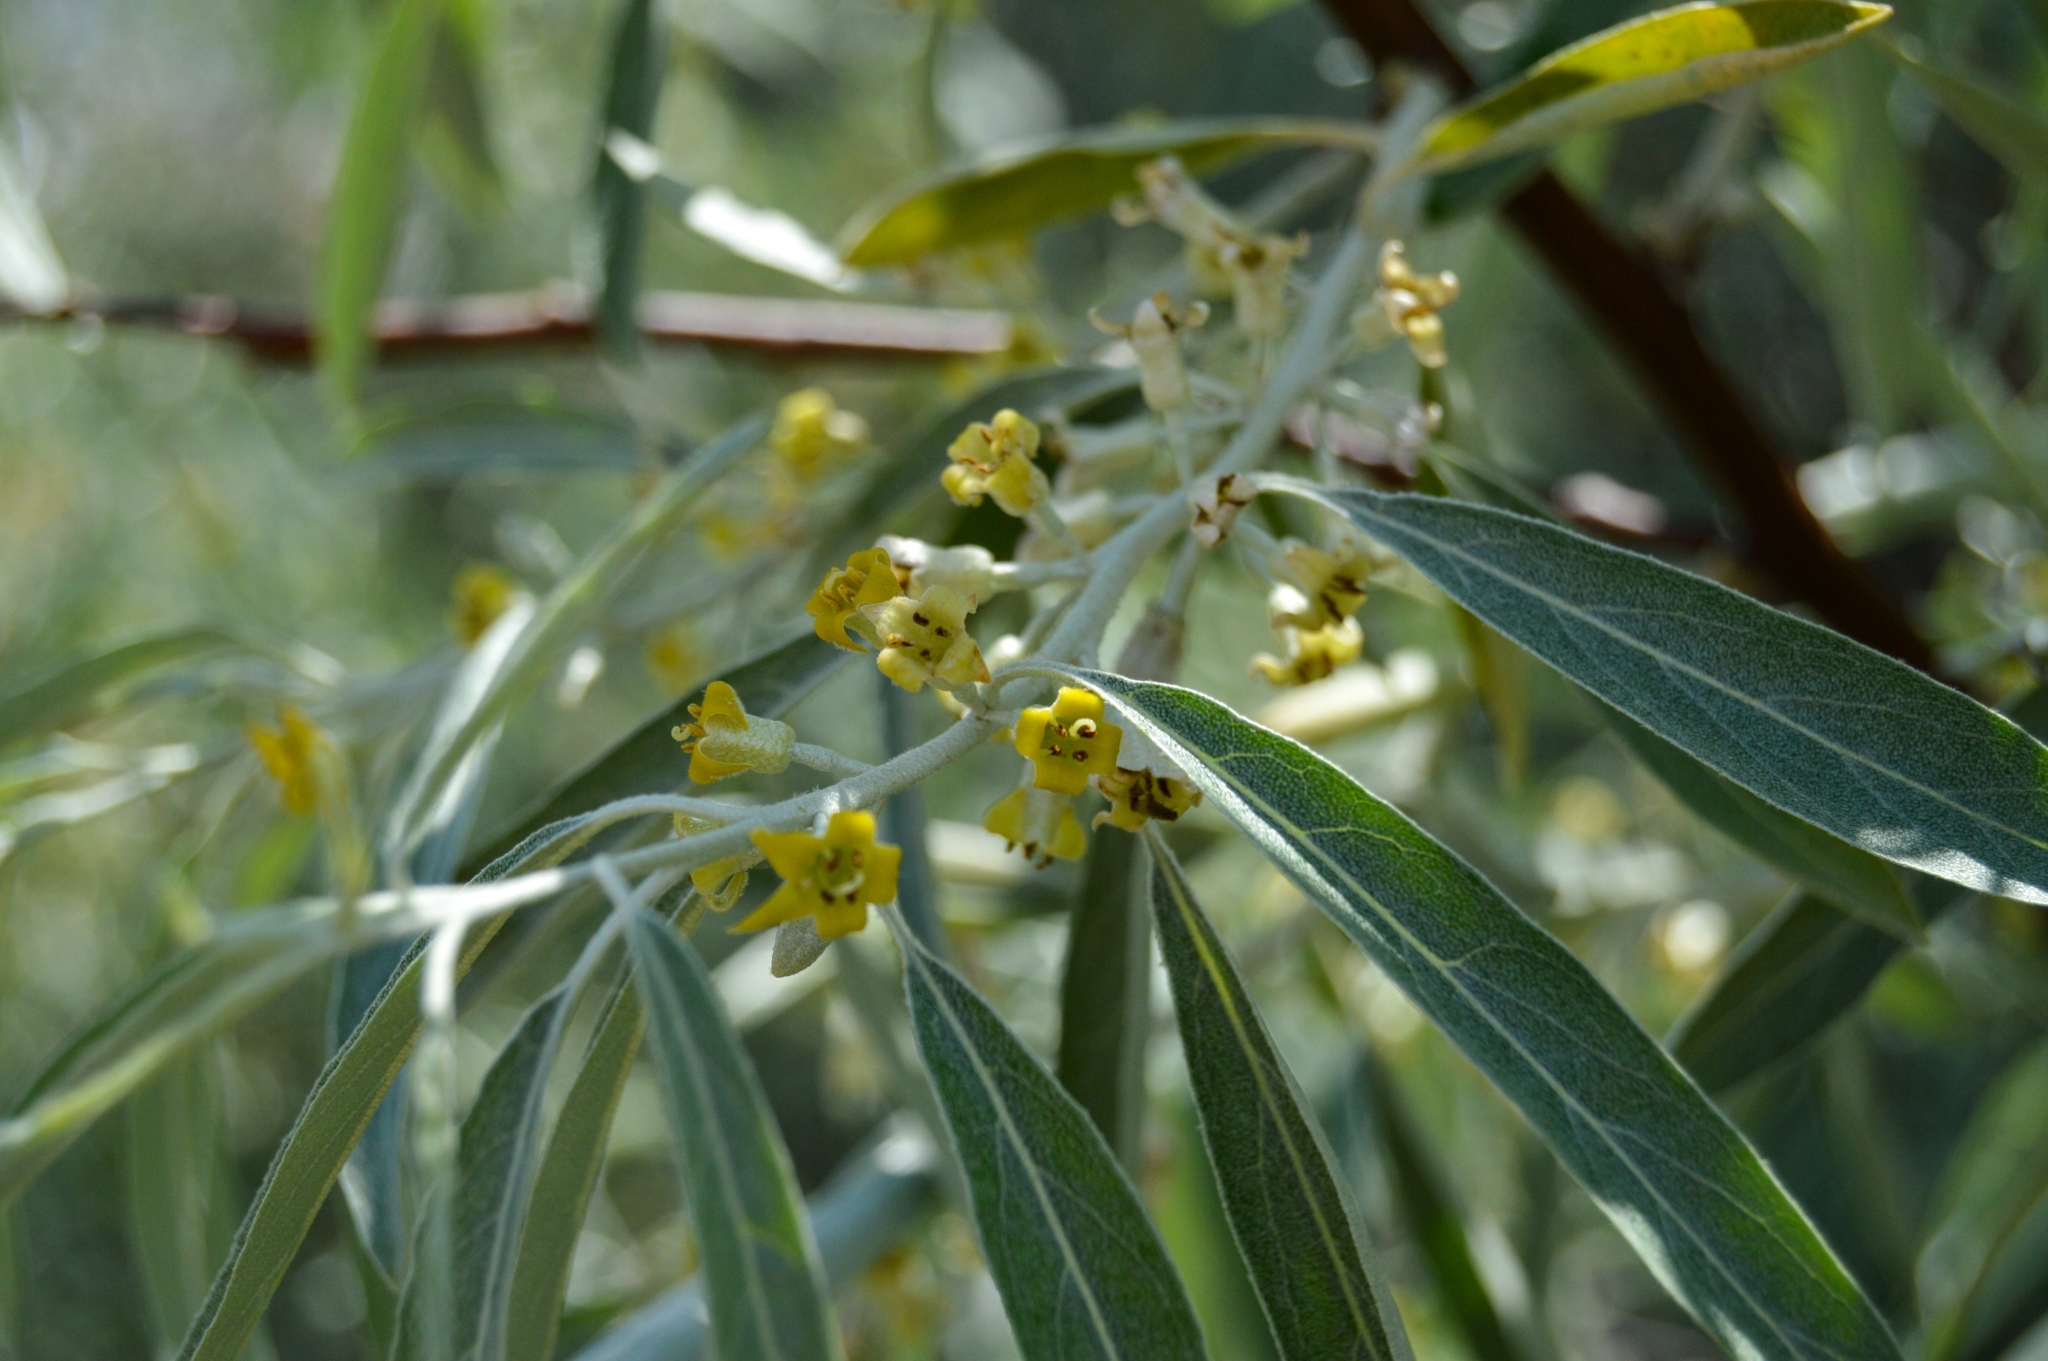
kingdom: Plantae
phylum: Tracheophyta
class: Magnoliopsida
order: Rosales
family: Elaeagnaceae
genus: Elaeagnus
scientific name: Elaeagnus angustifolia
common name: Russian olive
